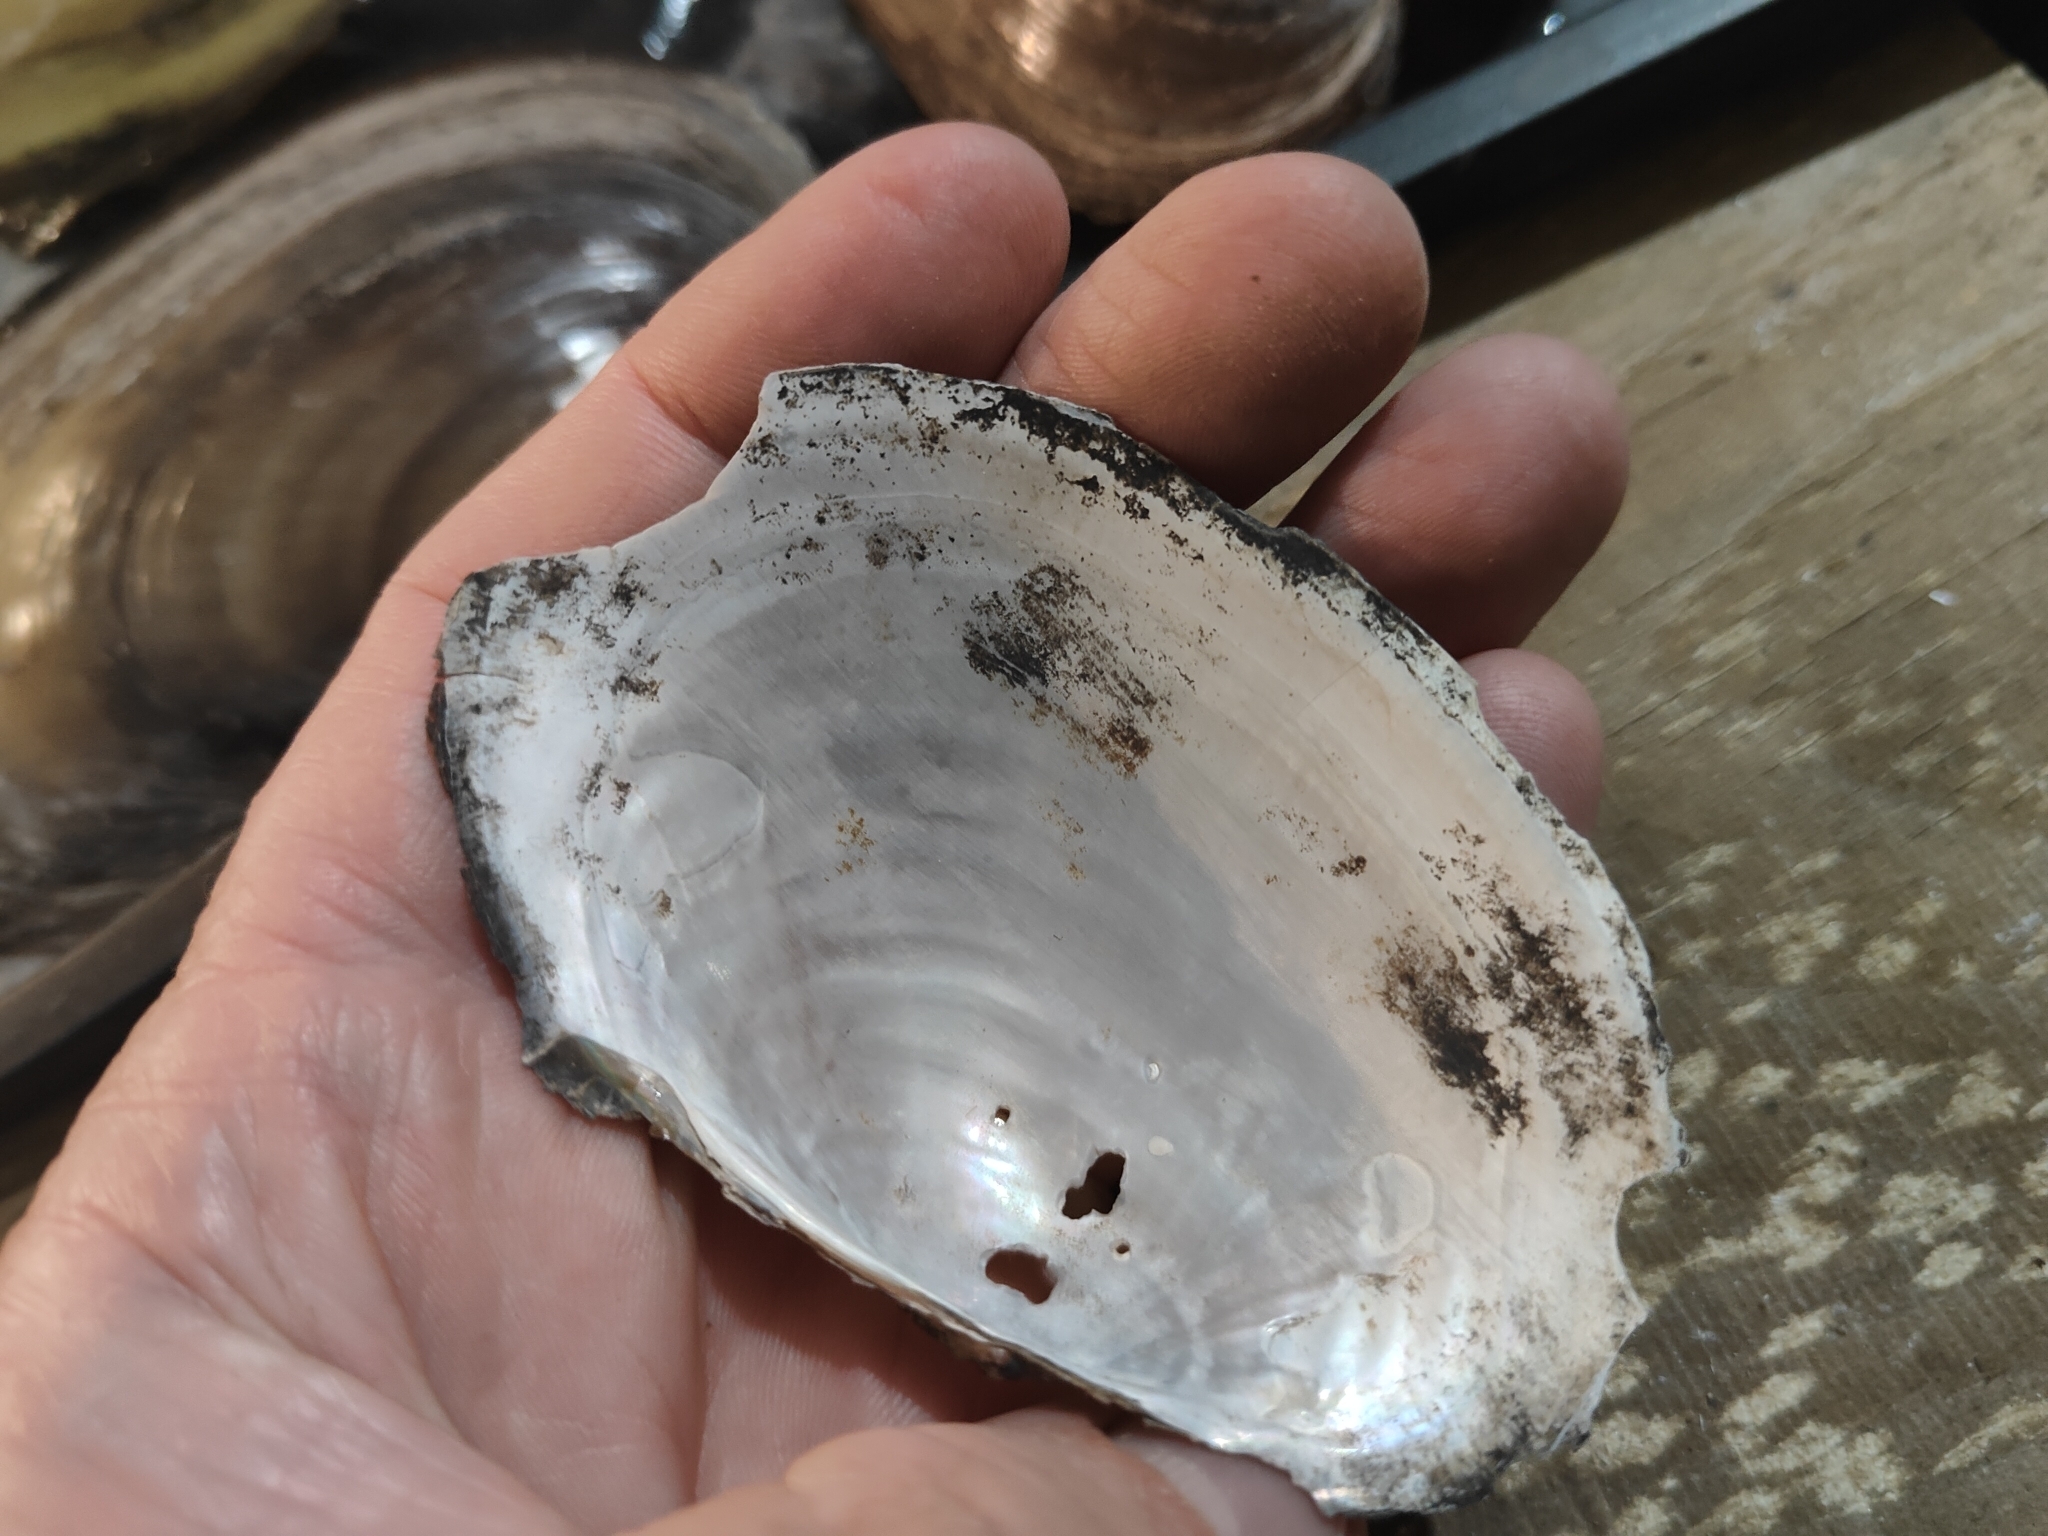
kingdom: Animalia
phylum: Mollusca
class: Bivalvia
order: Unionida
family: Unionidae
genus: Pyganodon
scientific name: Pyganodon grandis
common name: Giant floater
